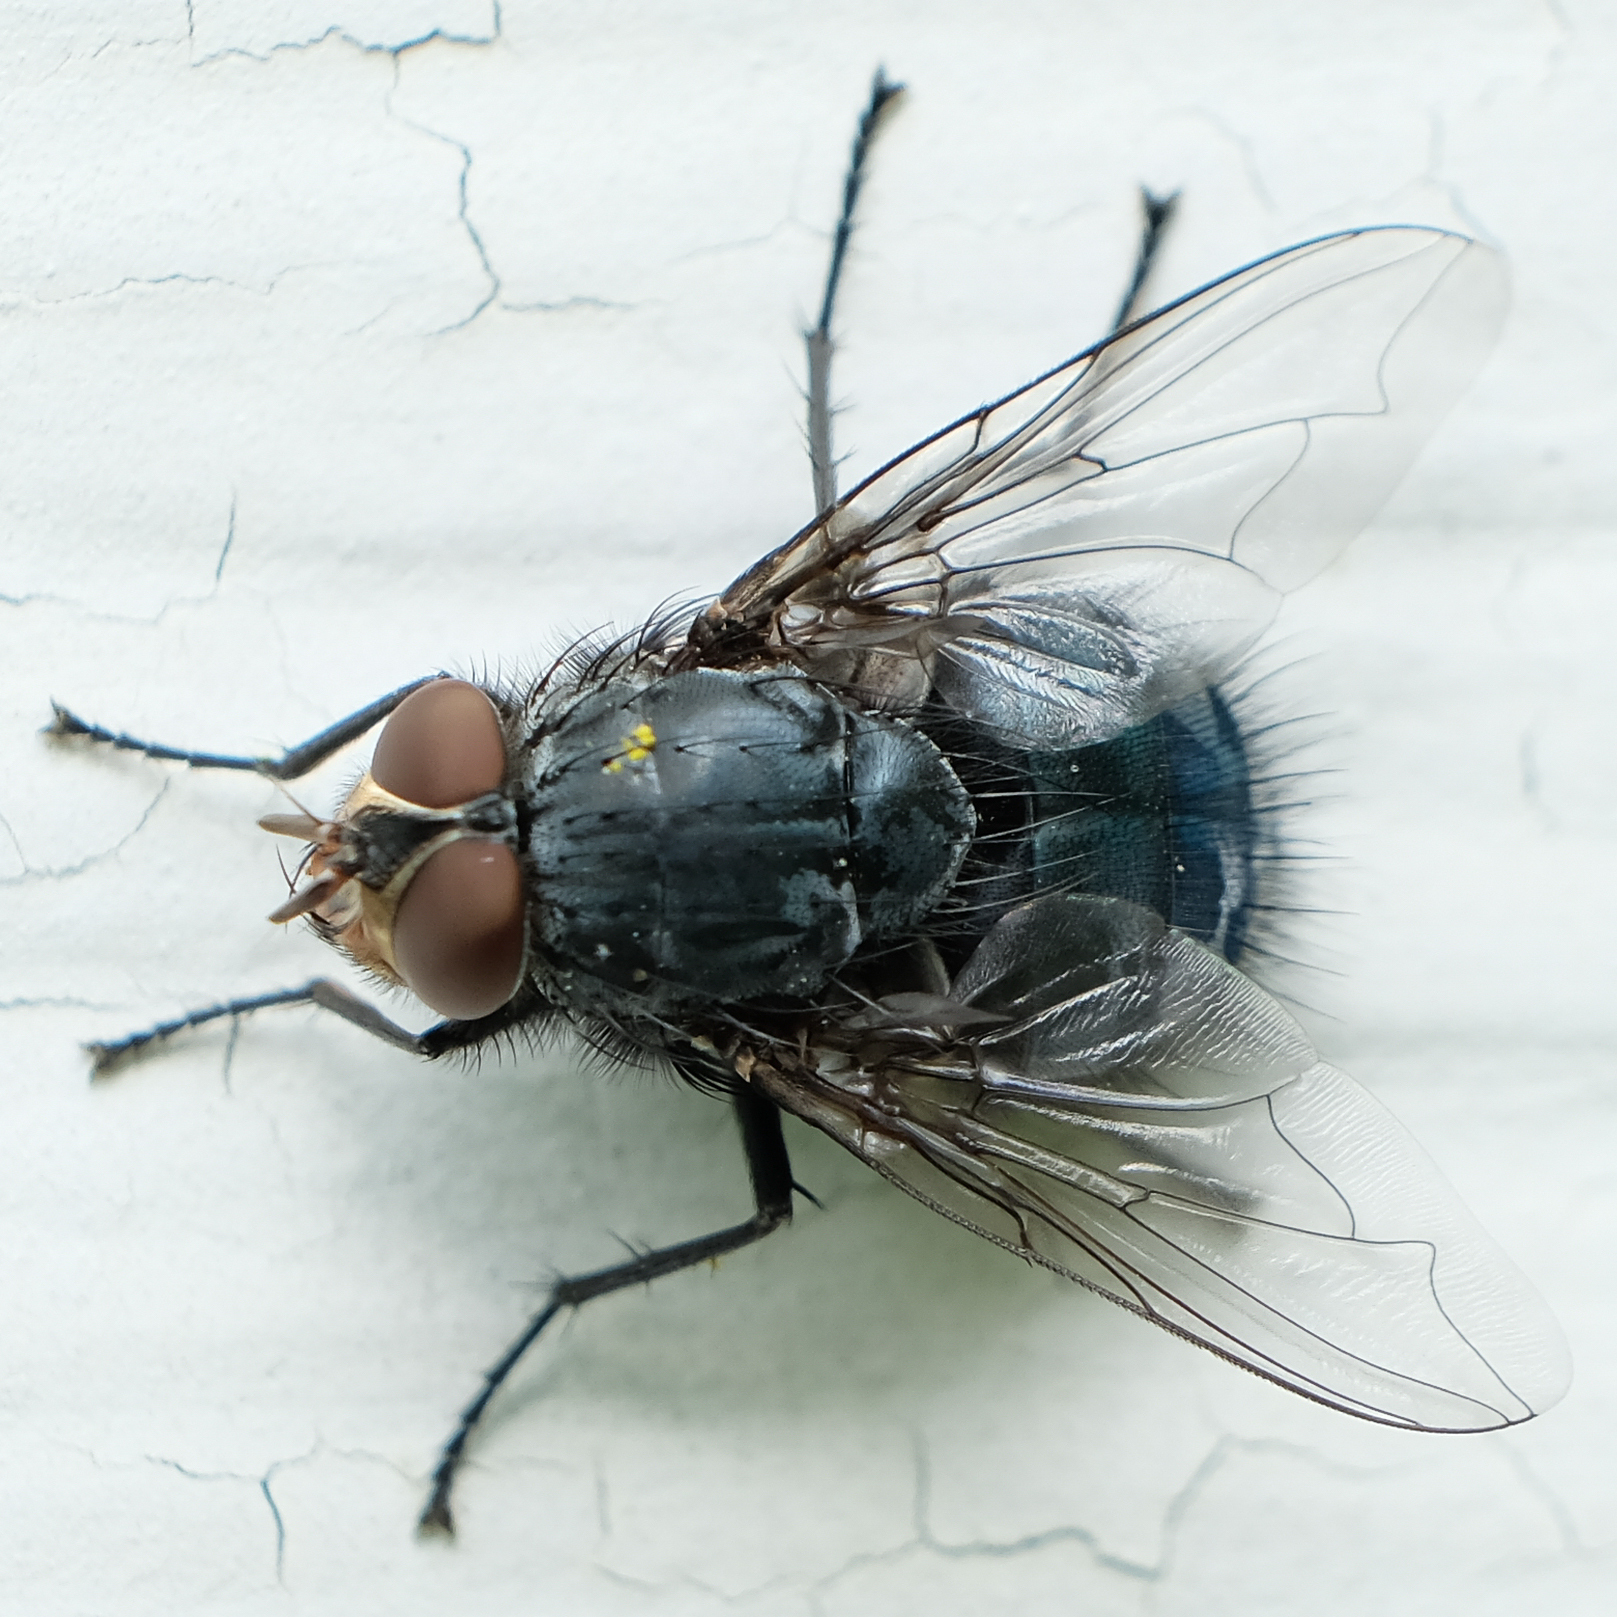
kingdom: Animalia
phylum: Arthropoda
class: Insecta
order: Diptera
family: Calliphoridae
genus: Calliphora
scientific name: Calliphora vicina
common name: Common blow flie
